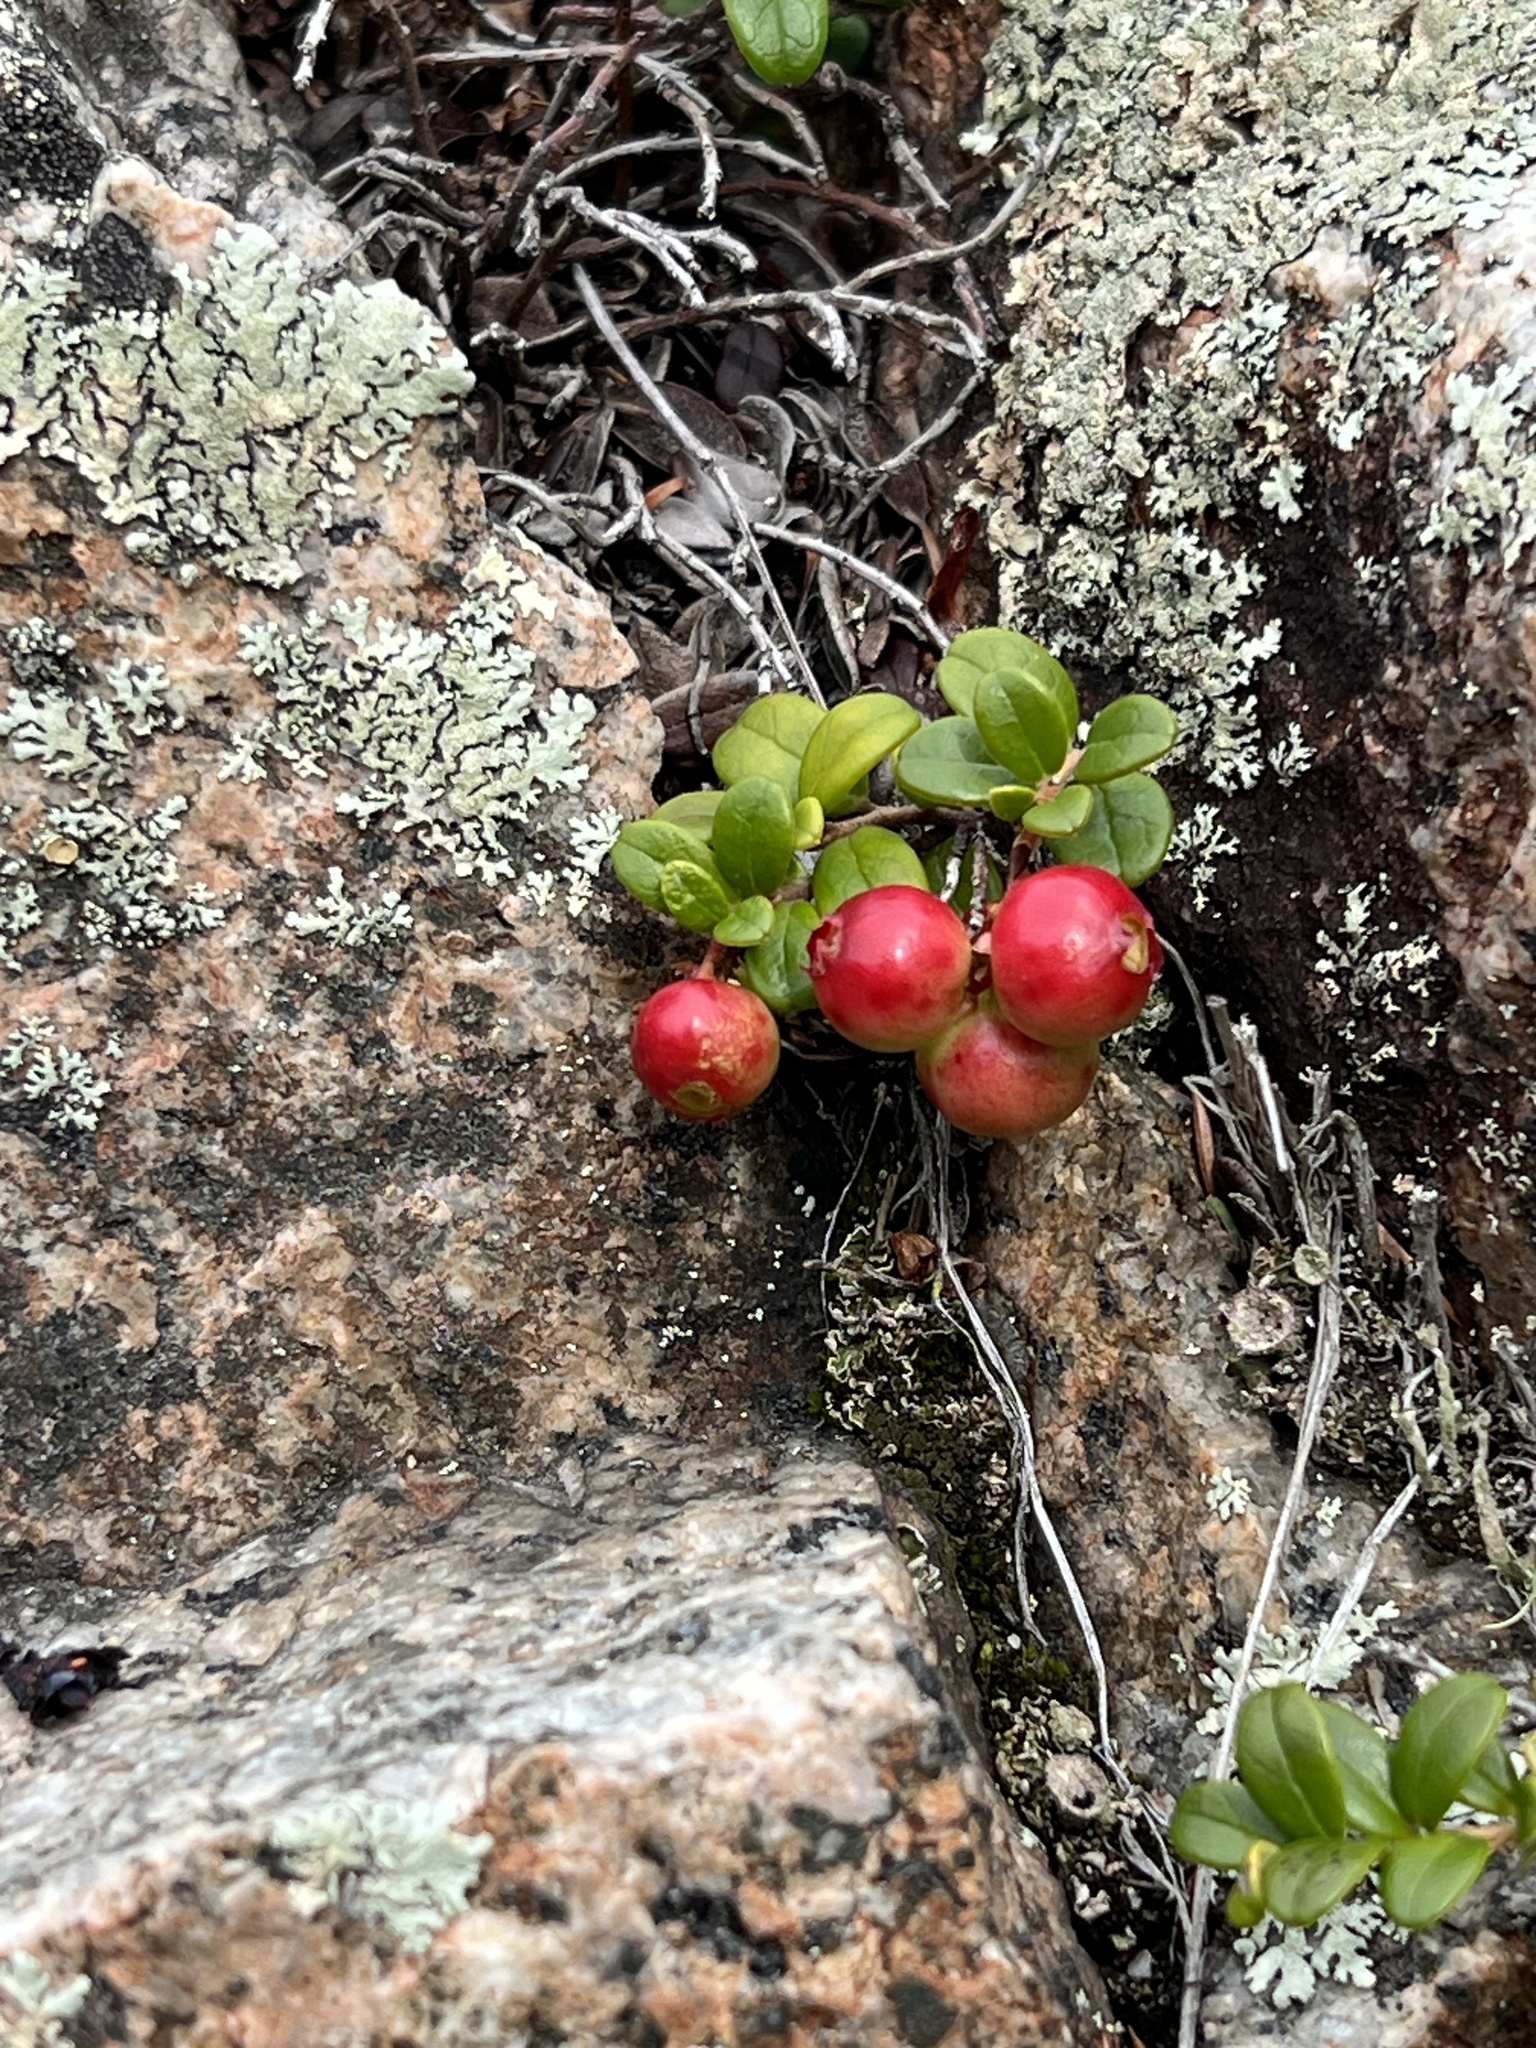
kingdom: Plantae
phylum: Tracheophyta
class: Magnoliopsida
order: Ericales
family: Ericaceae
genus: Vaccinium
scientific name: Vaccinium vitis-idaea
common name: Cowberry
